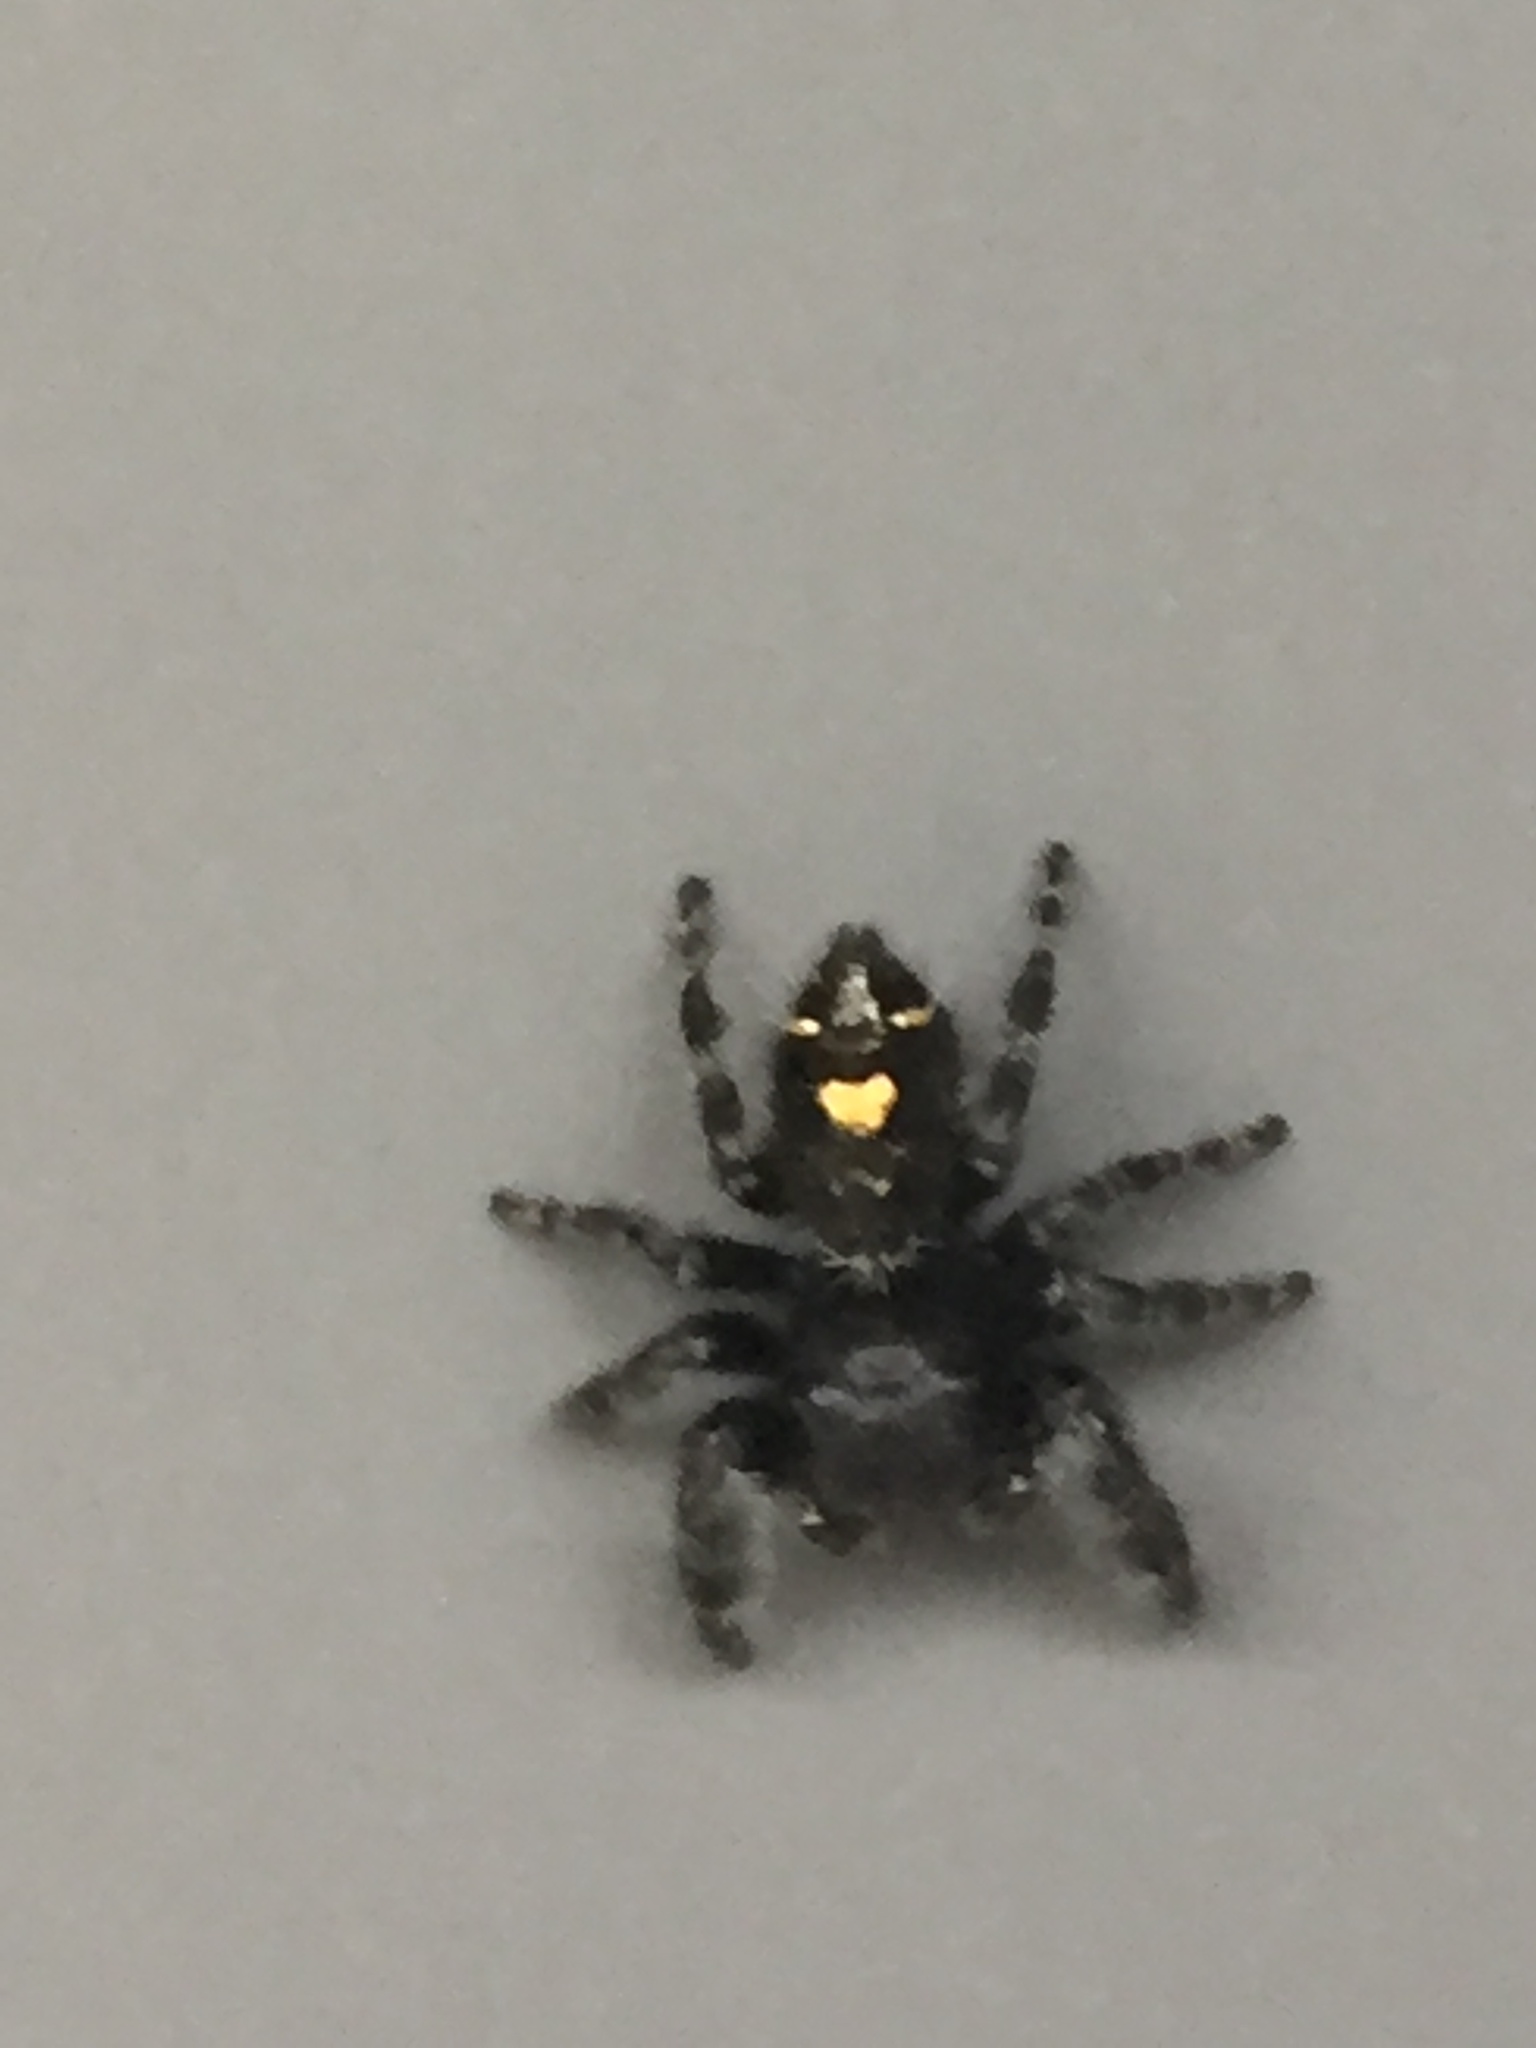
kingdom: Animalia
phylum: Arthropoda
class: Arachnida
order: Araneae
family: Salticidae
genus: Phidippus
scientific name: Phidippus audax
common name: Bold jumper
